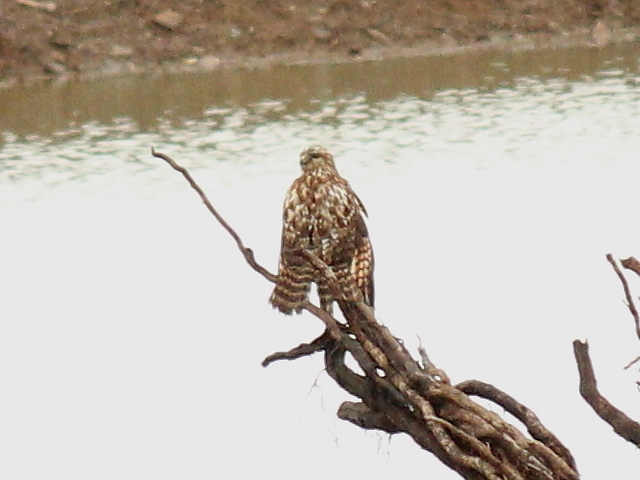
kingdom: Animalia
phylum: Chordata
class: Aves
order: Accipitriformes
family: Accipitridae
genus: Buteo
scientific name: Buteo lineatus
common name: Red-shouldered hawk
